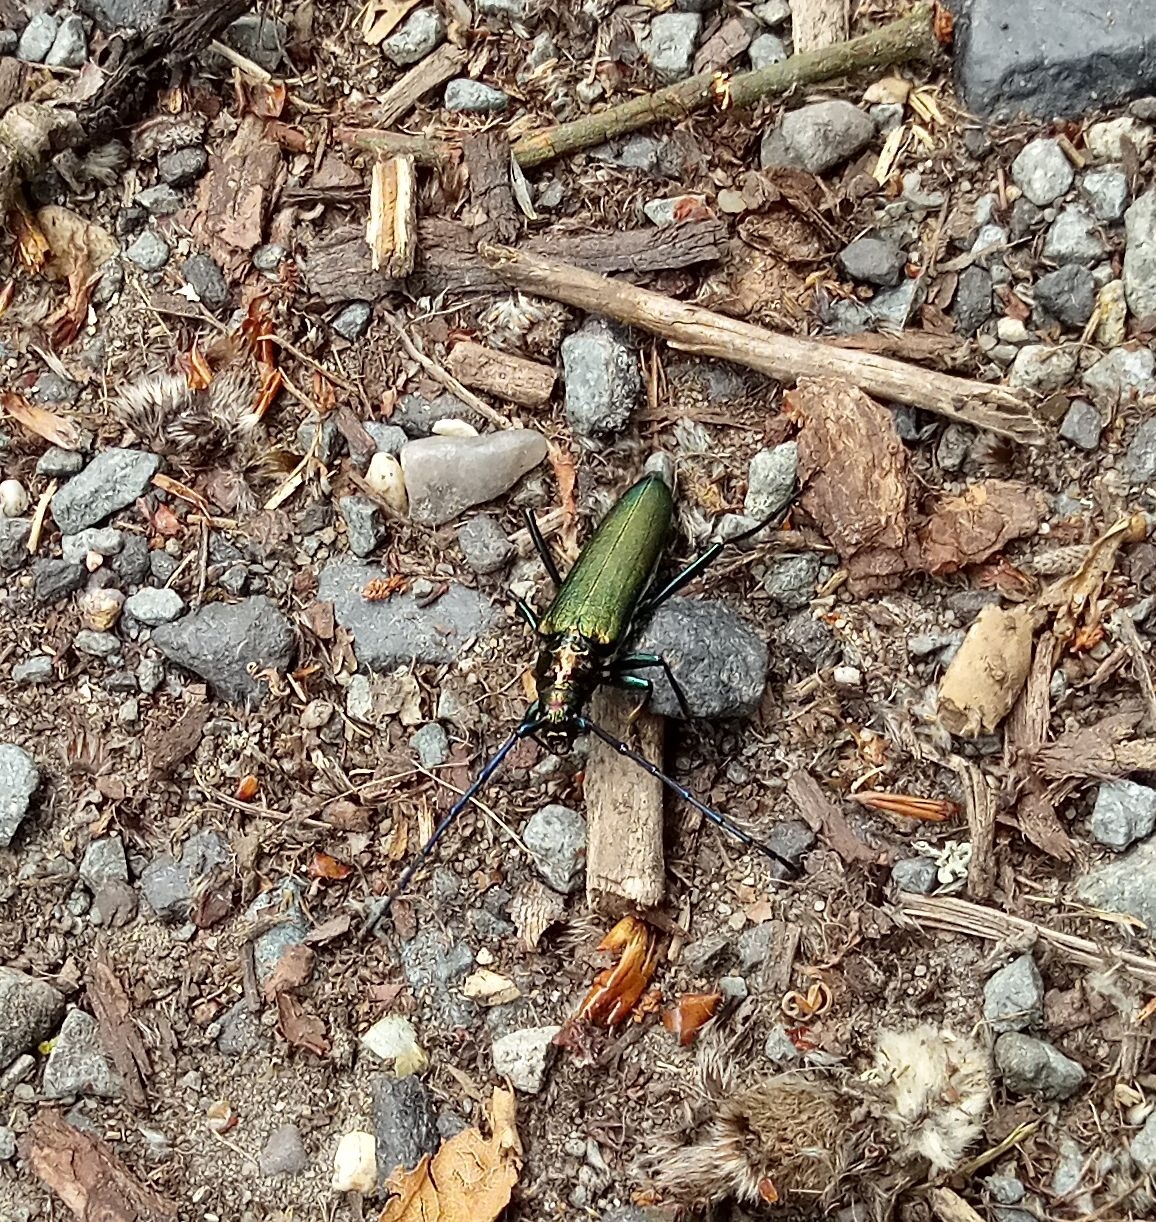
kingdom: Animalia
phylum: Arthropoda
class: Insecta
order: Coleoptera
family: Cerambycidae
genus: Aromia
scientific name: Aromia moschata
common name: Musk beetle
